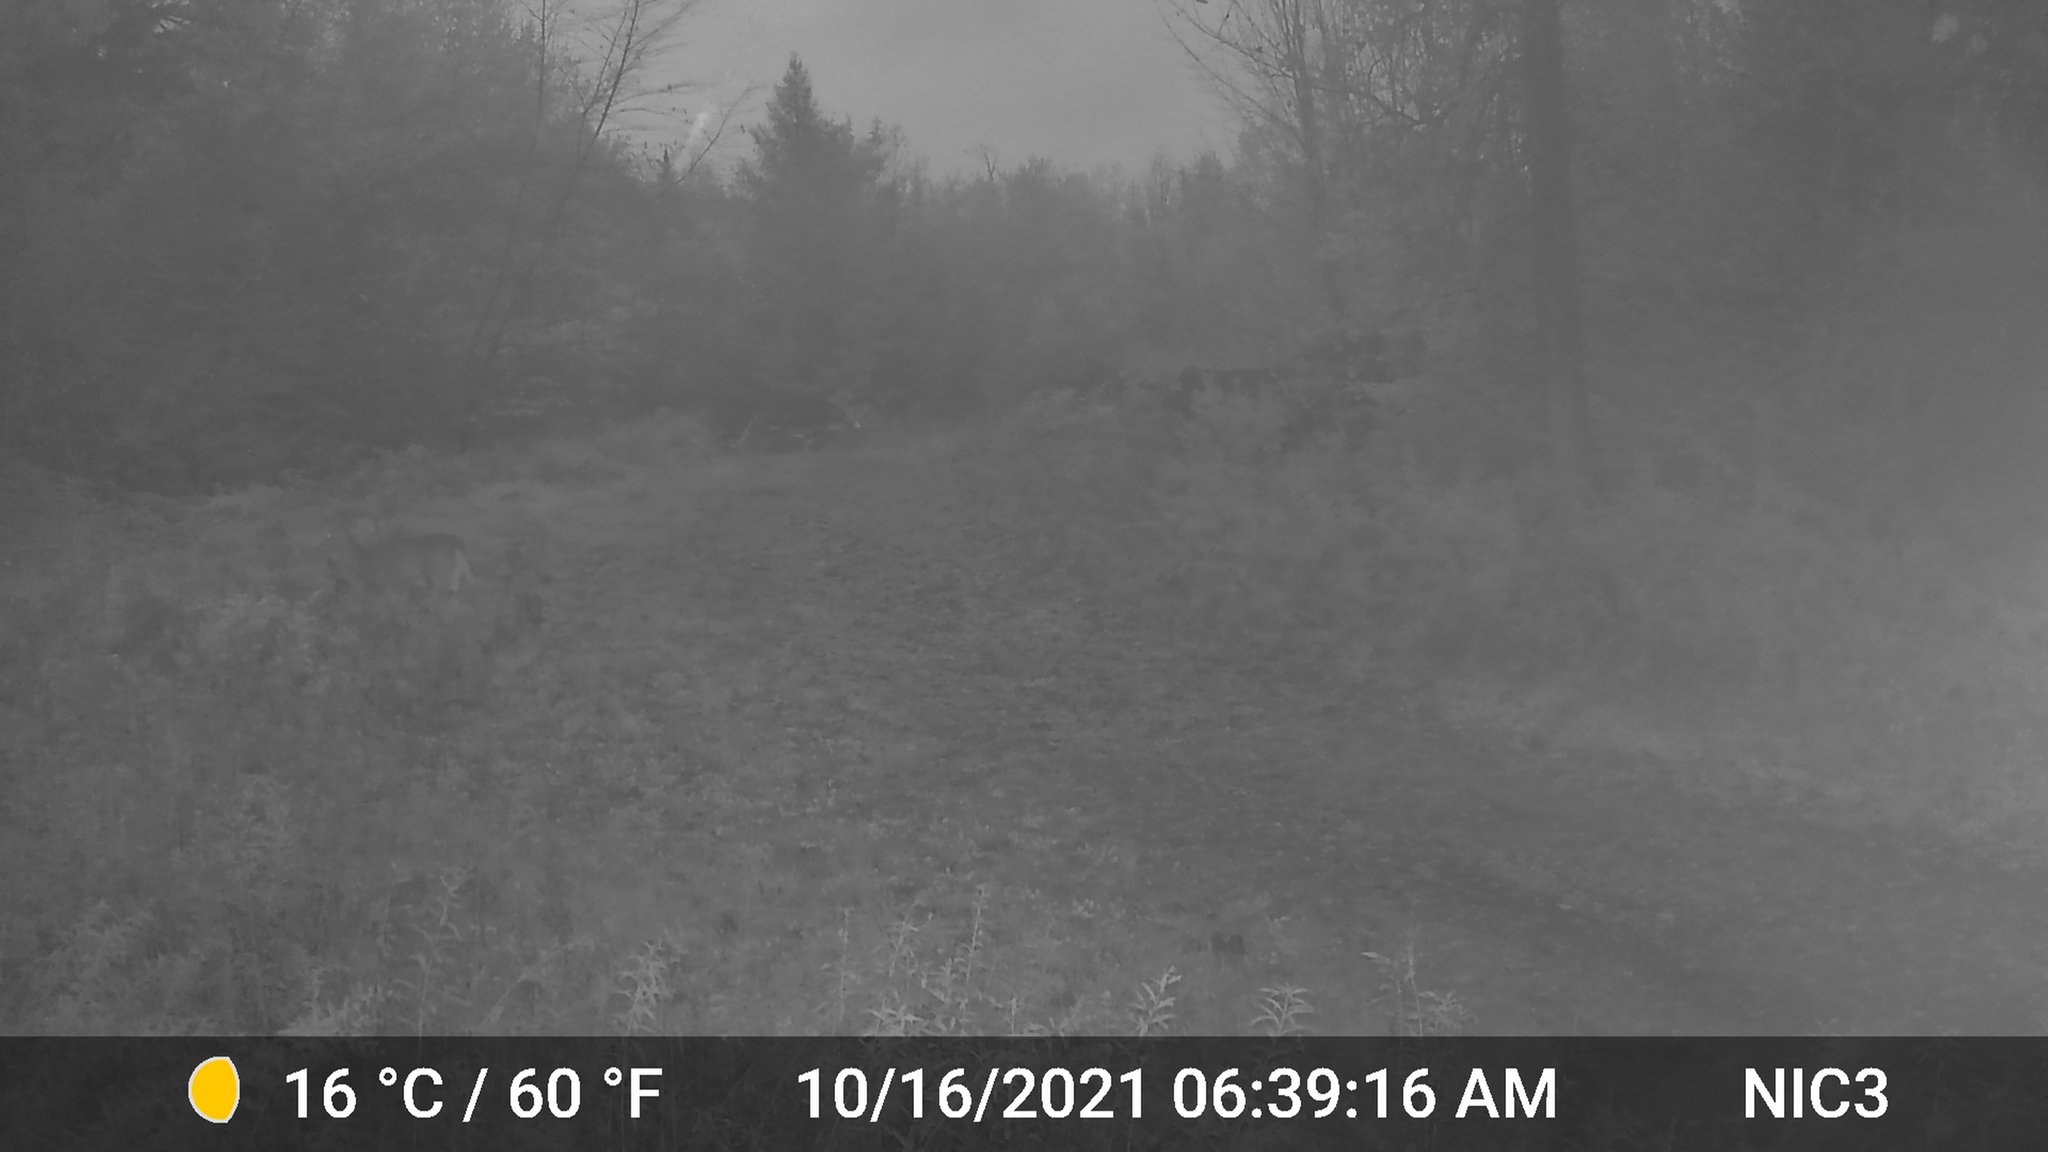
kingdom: Animalia
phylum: Chordata
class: Mammalia
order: Artiodactyla
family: Cervidae
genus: Odocoileus
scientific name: Odocoileus virginianus
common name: White-tailed deer
